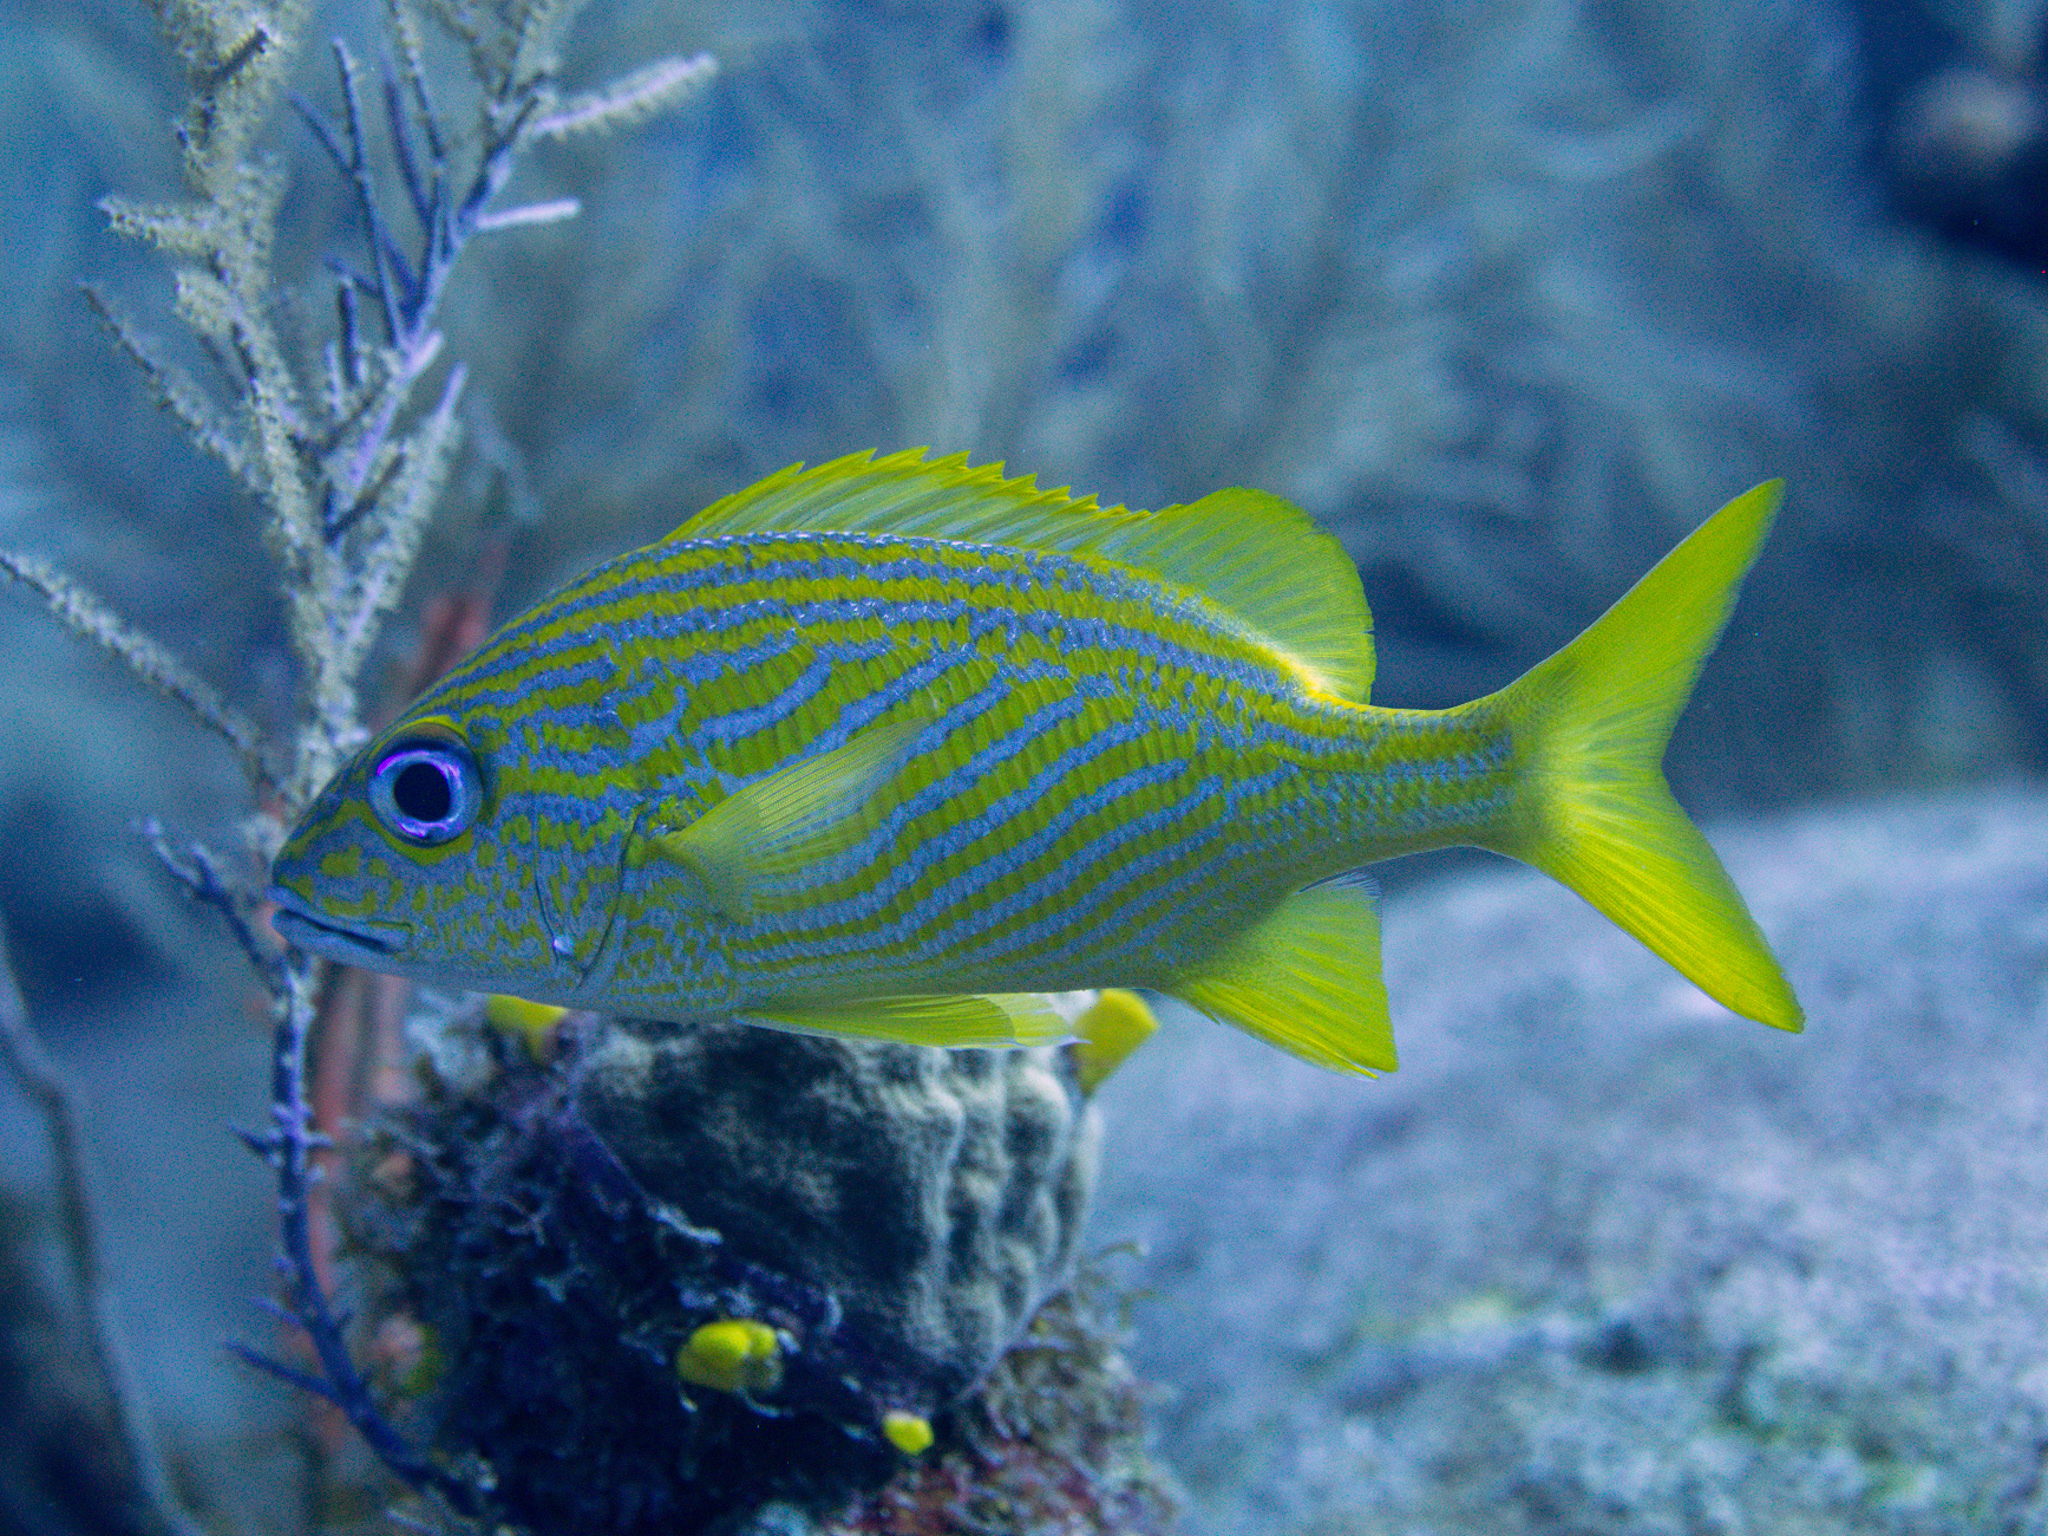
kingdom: Animalia
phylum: Chordata
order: Perciformes
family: Haemulidae
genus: Haemulon
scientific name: Haemulon flavolineatum
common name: French grunt
